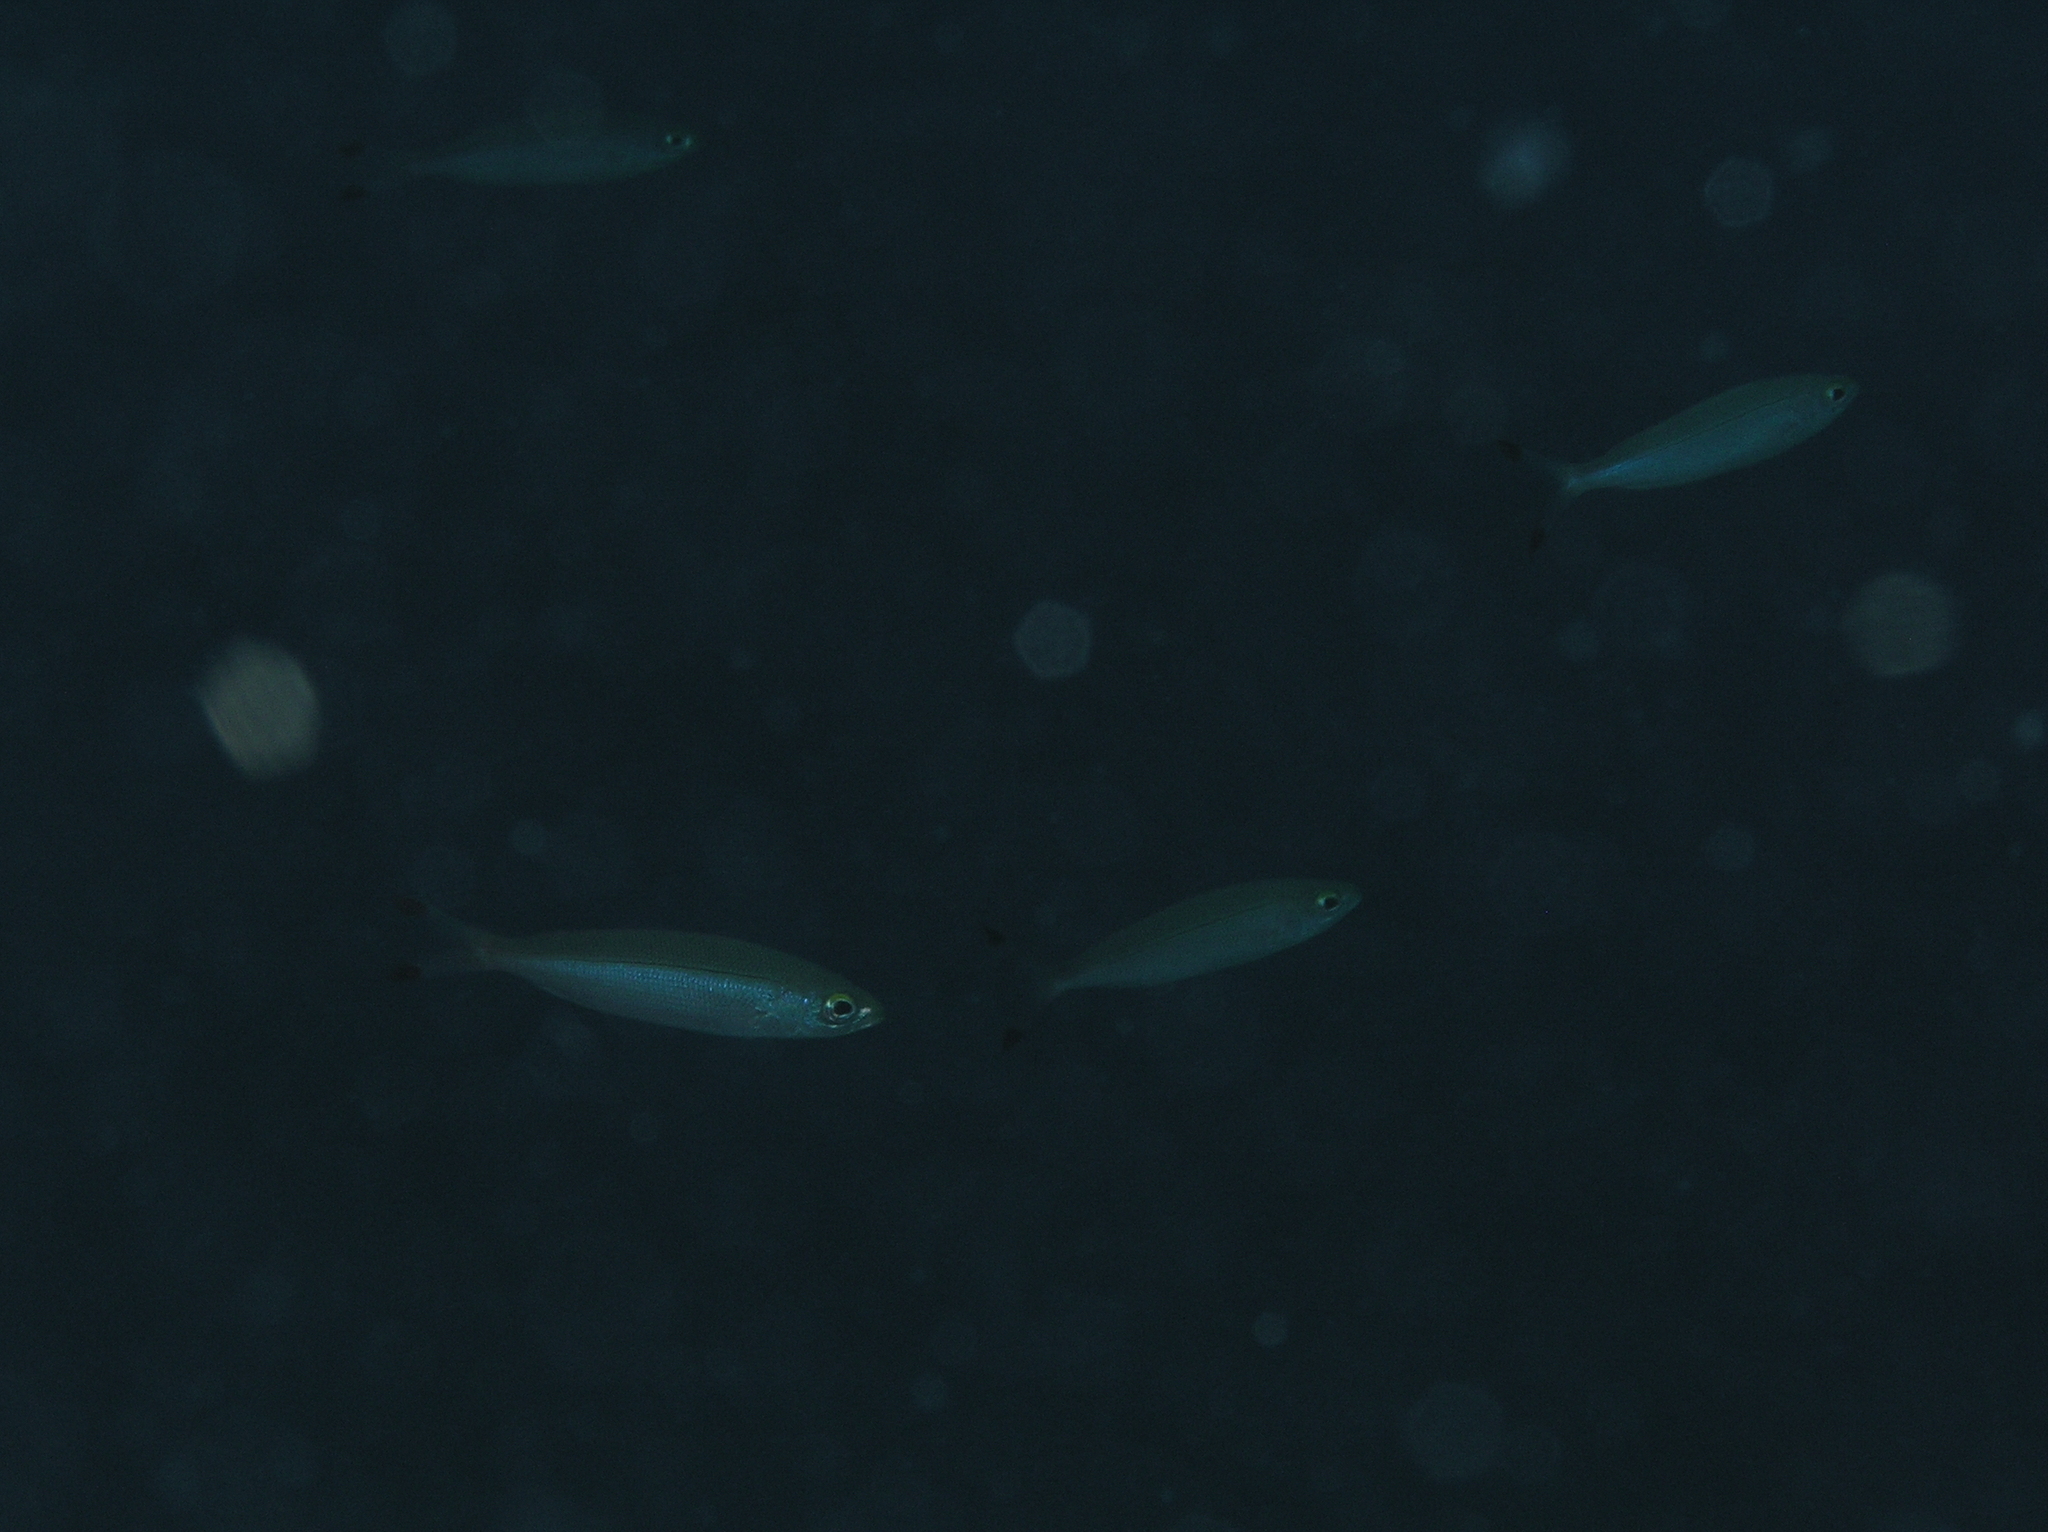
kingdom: Animalia
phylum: Chordata
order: Perciformes
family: Caesionidae
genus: Pterocaesio
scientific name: Pterocaesio pisang
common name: Banana fusilier
